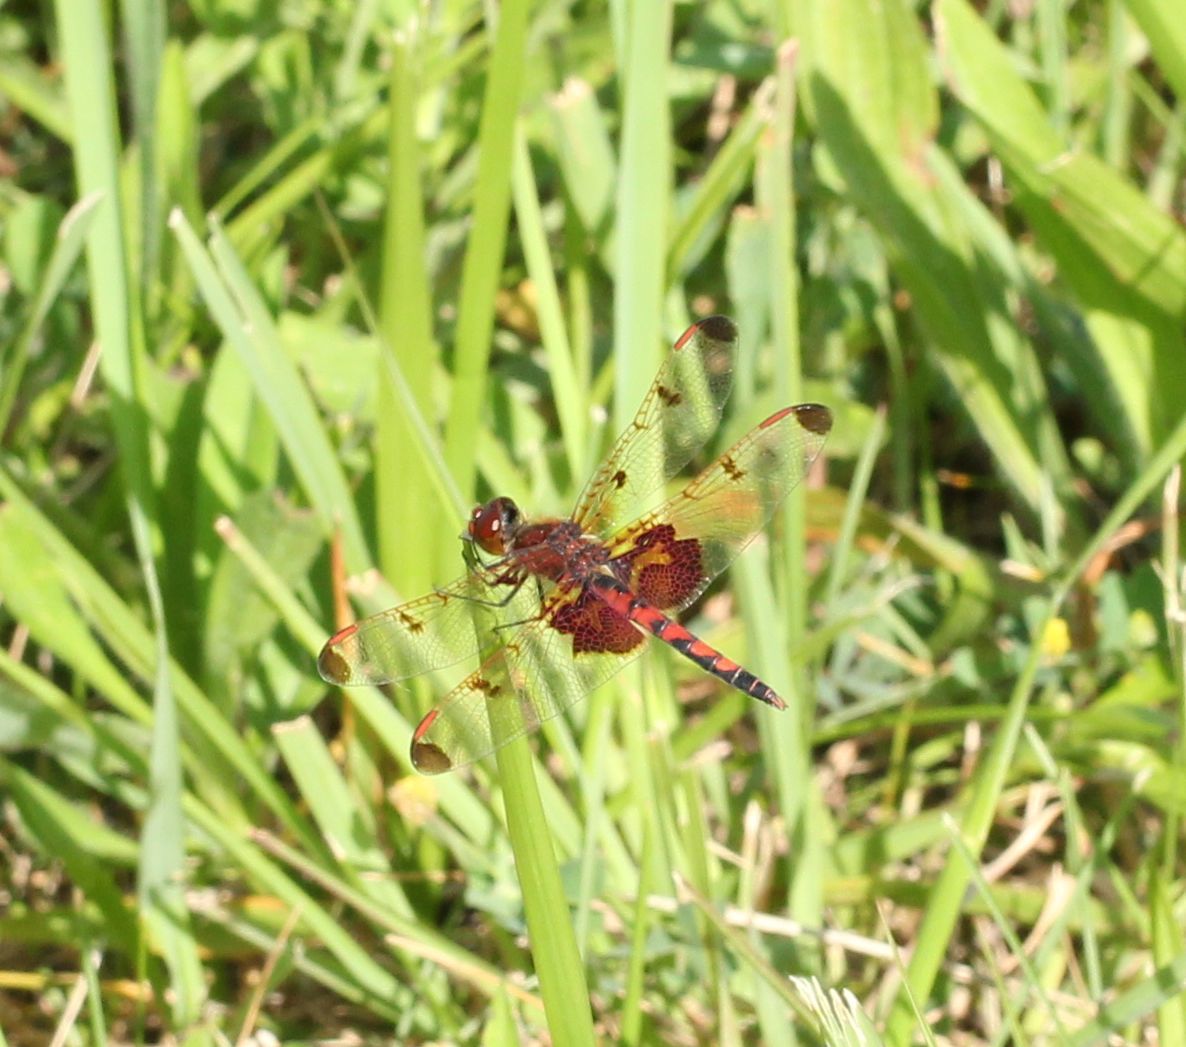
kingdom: Animalia
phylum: Arthropoda
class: Insecta
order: Odonata
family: Libellulidae
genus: Celithemis
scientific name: Celithemis elisa
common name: Calico pennant
